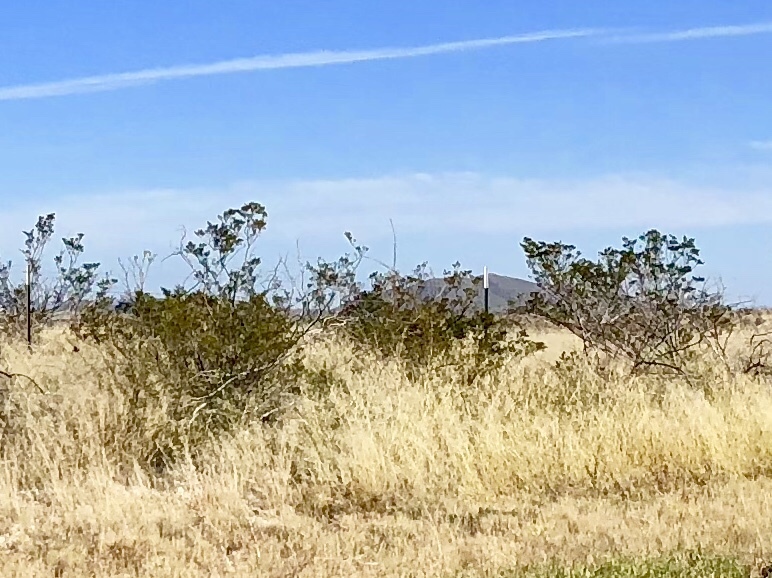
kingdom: Plantae
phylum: Tracheophyta
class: Magnoliopsida
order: Zygophyllales
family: Zygophyllaceae
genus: Larrea
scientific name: Larrea tridentata
